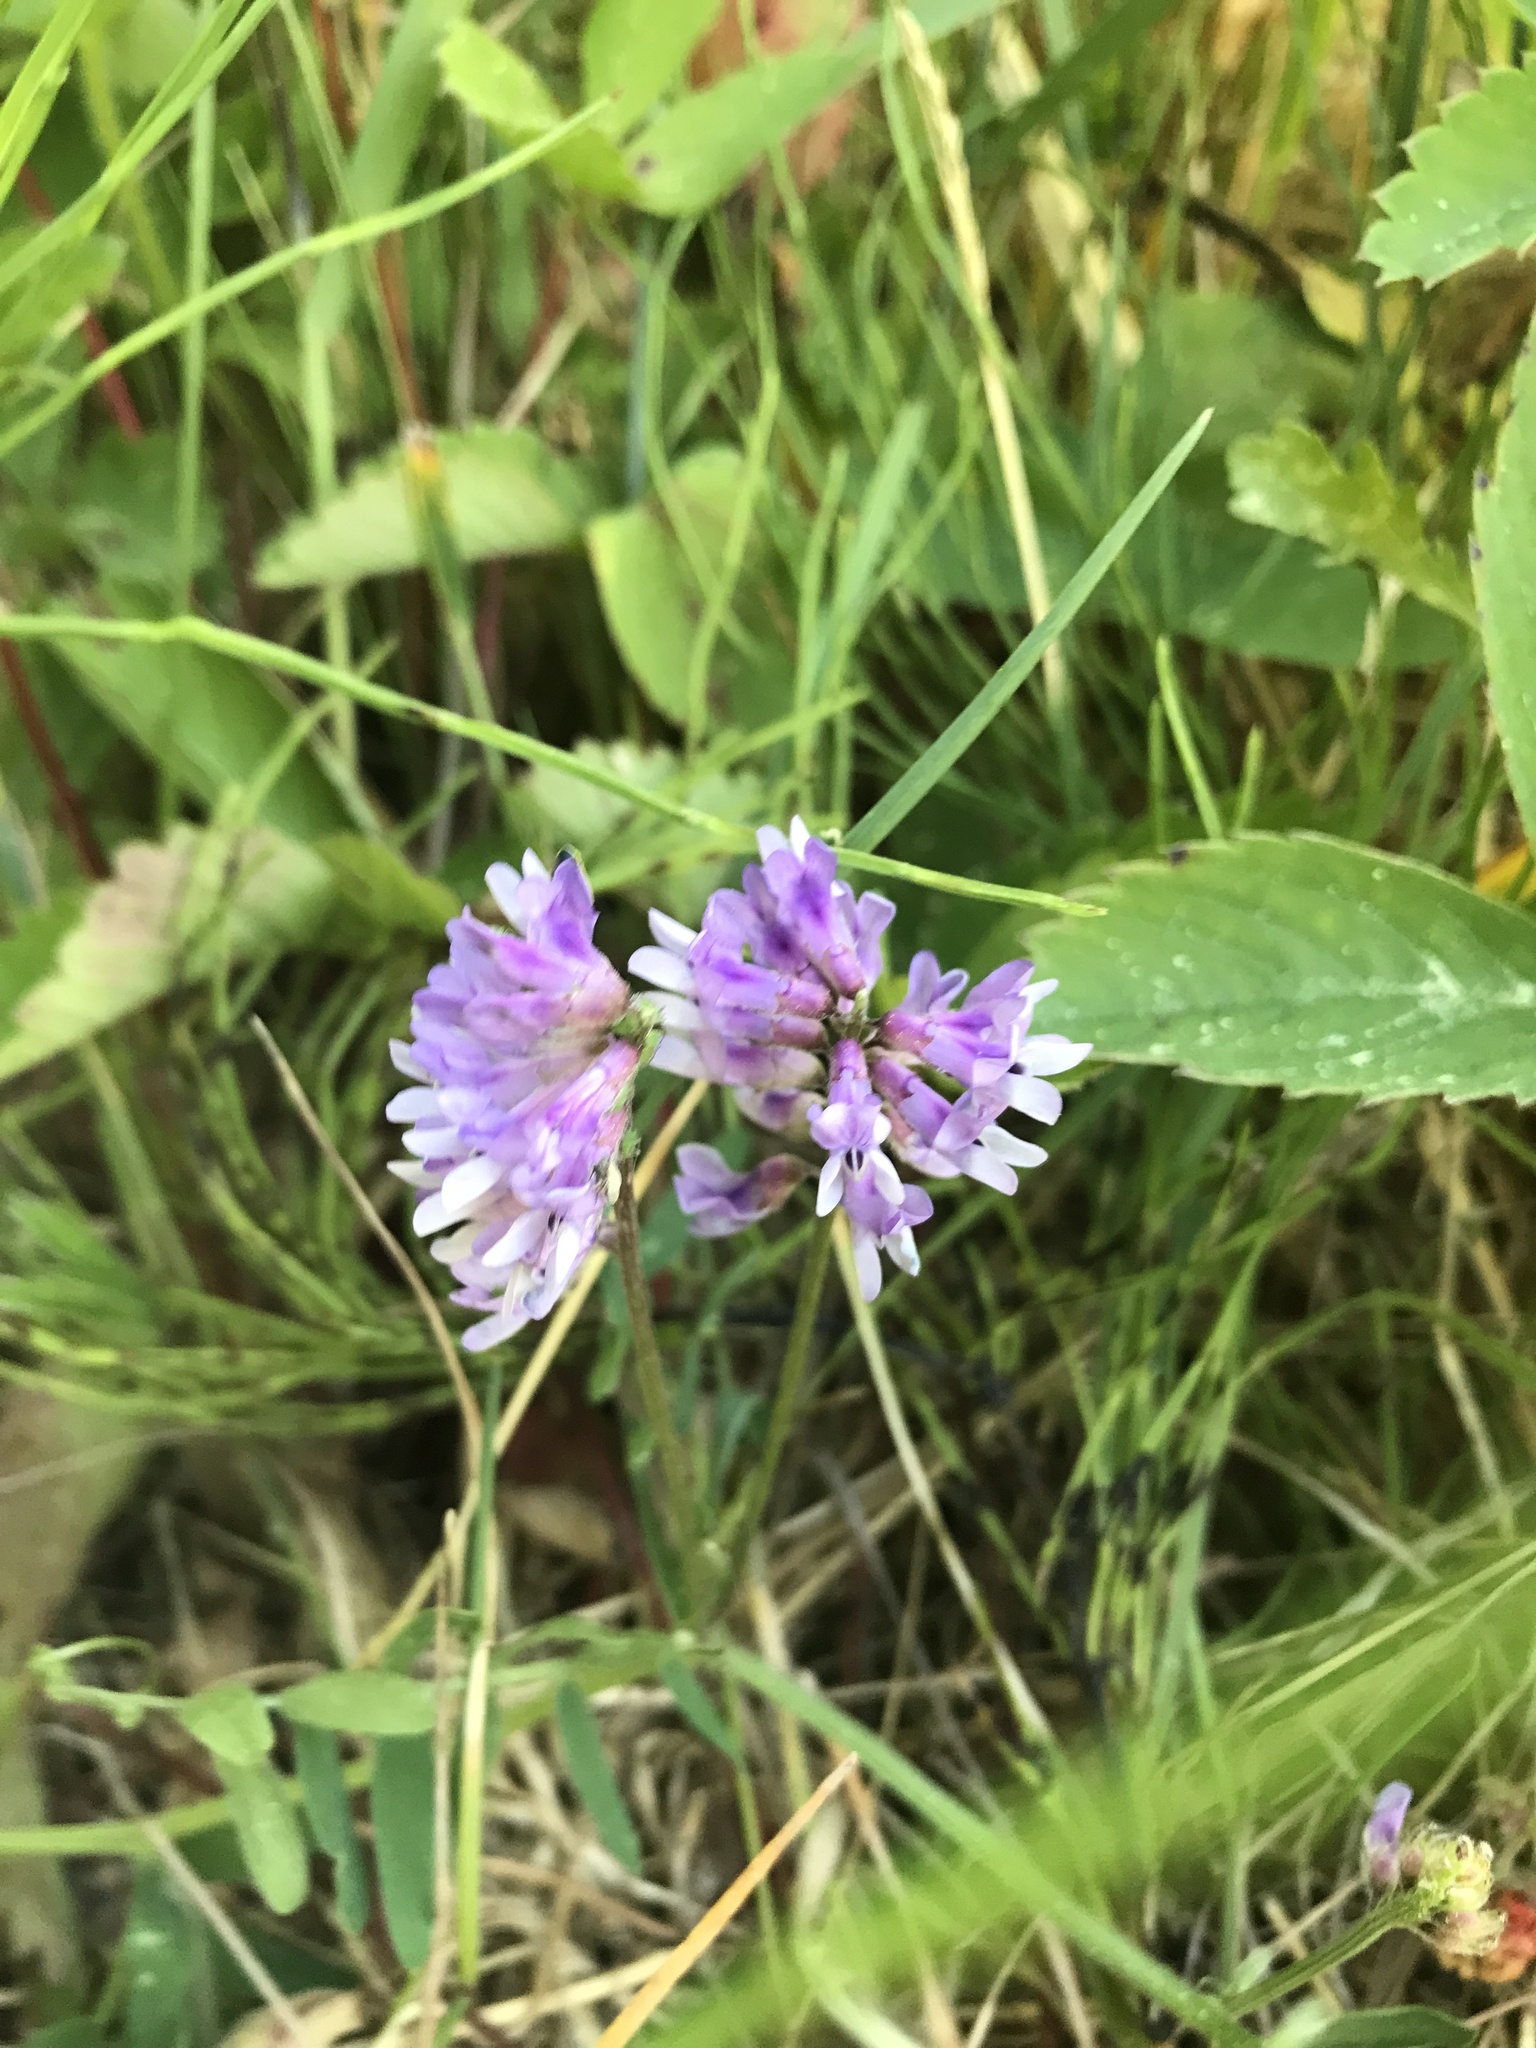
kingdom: Plantae
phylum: Tracheophyta
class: Magnoliopsida
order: Fabales
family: Fabaceae
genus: Vicia
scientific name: Vicia cracca
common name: Bird vetch
